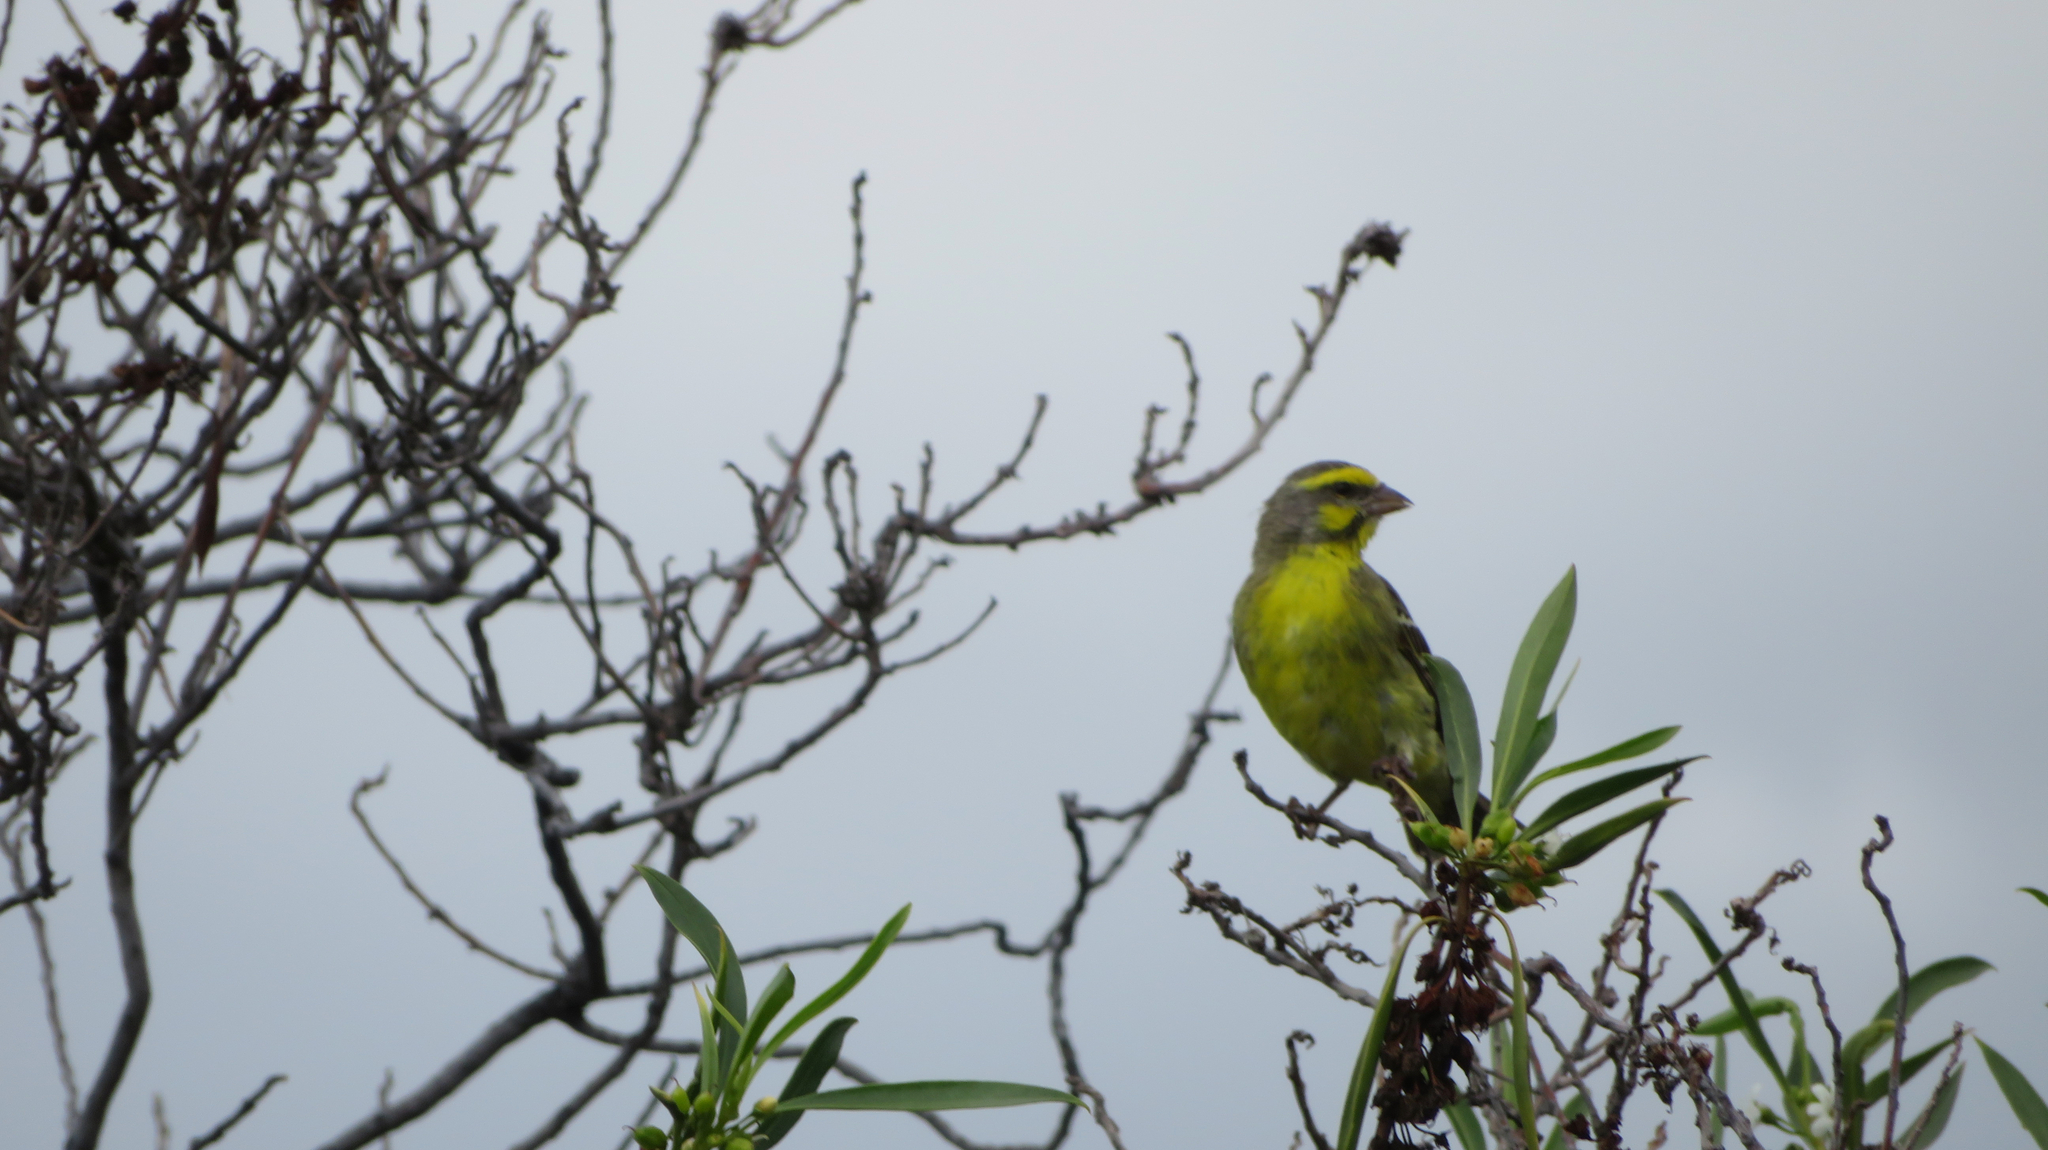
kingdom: Animalia
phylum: Chordata
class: Aves
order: Passeriformes
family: Fringillidae
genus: Crithagra
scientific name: Crithagra mozambica
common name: Yellow-fronted canary
